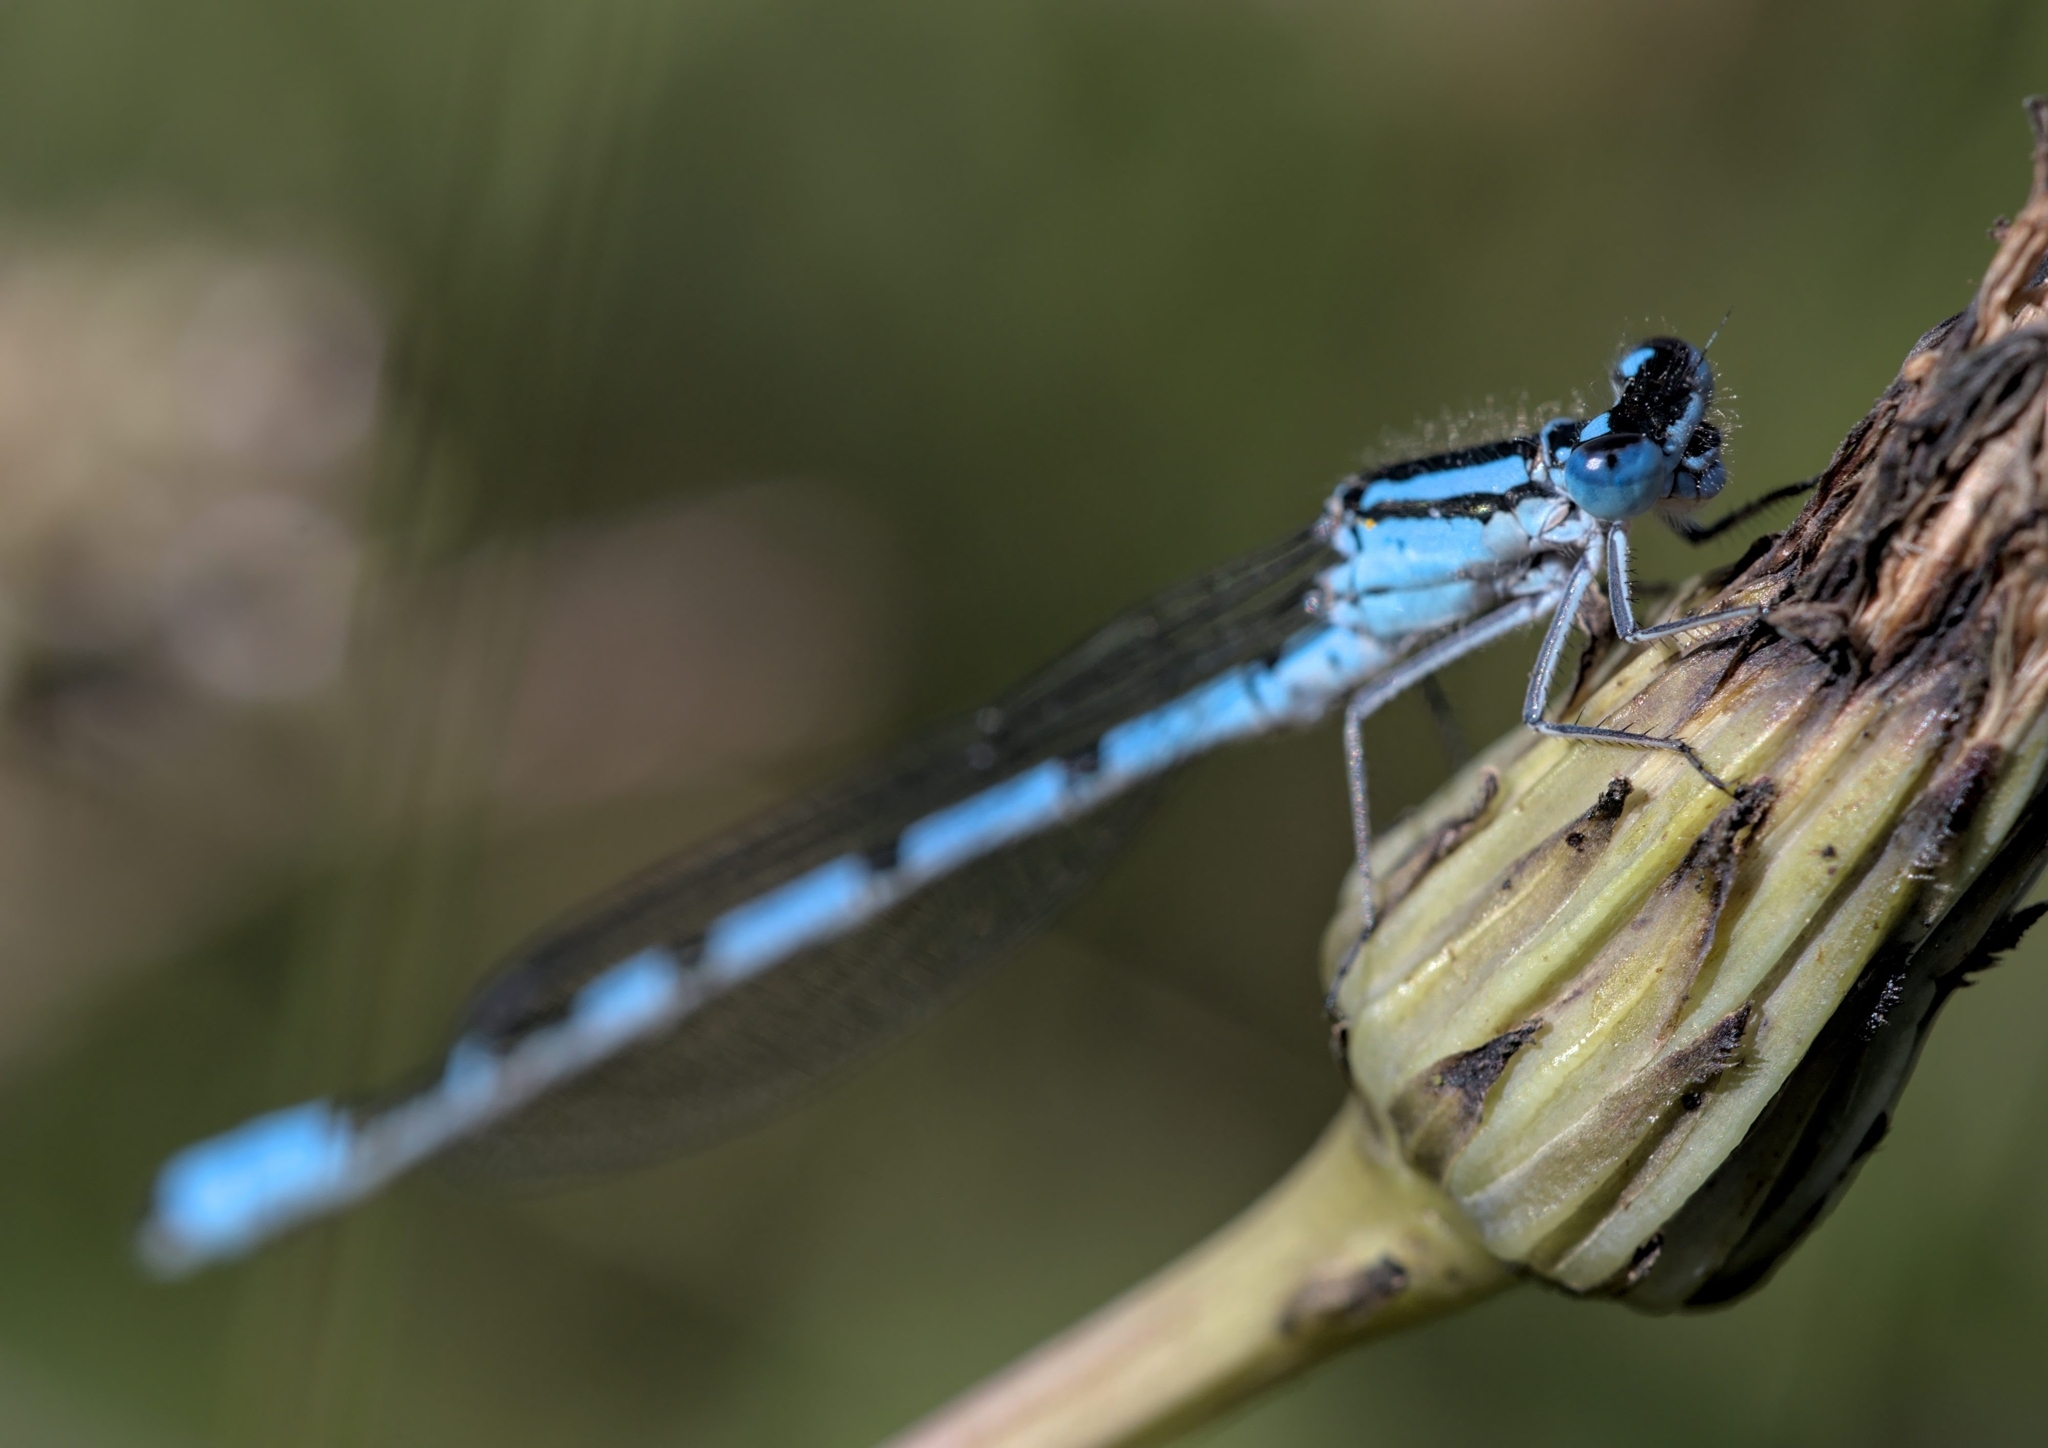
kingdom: Animalia
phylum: Arthropoda
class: Insecta
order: Odonata
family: Coenagrionidae
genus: Enallagma
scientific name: Enallagma cyathigerum
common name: Common blue damselfly
